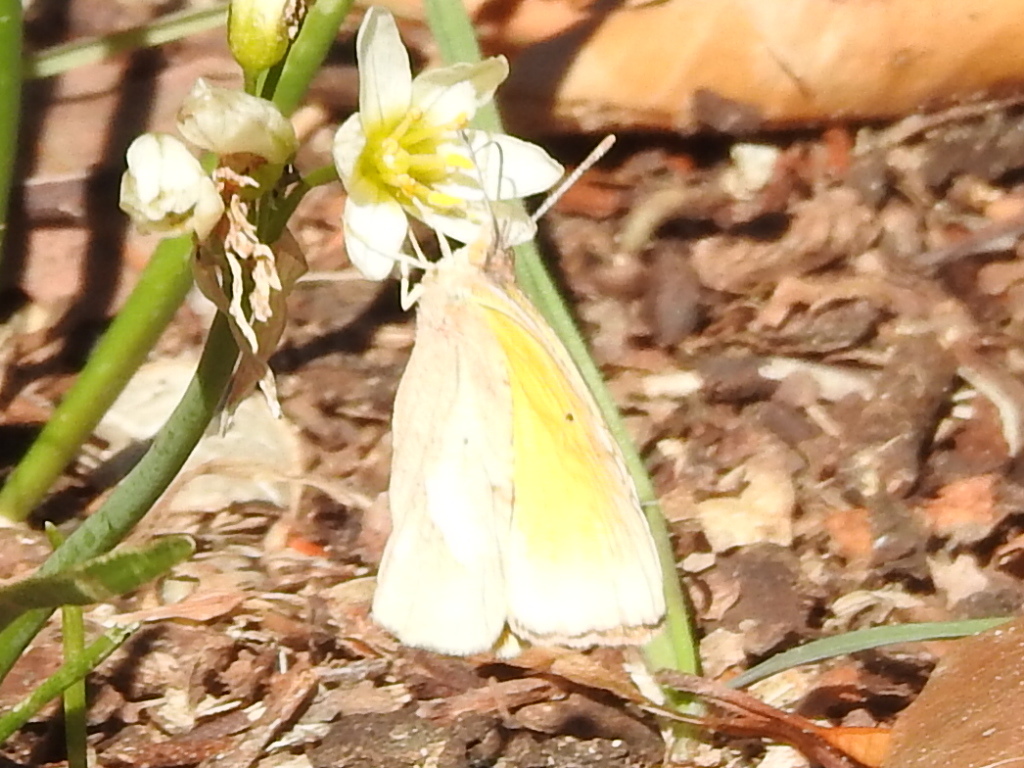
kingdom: Animalia
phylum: Arthropoda
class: Insecta
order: Lepidoptera
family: Pieridae
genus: Abaeis
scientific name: Abaeis nicippe
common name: Sleepy orange
